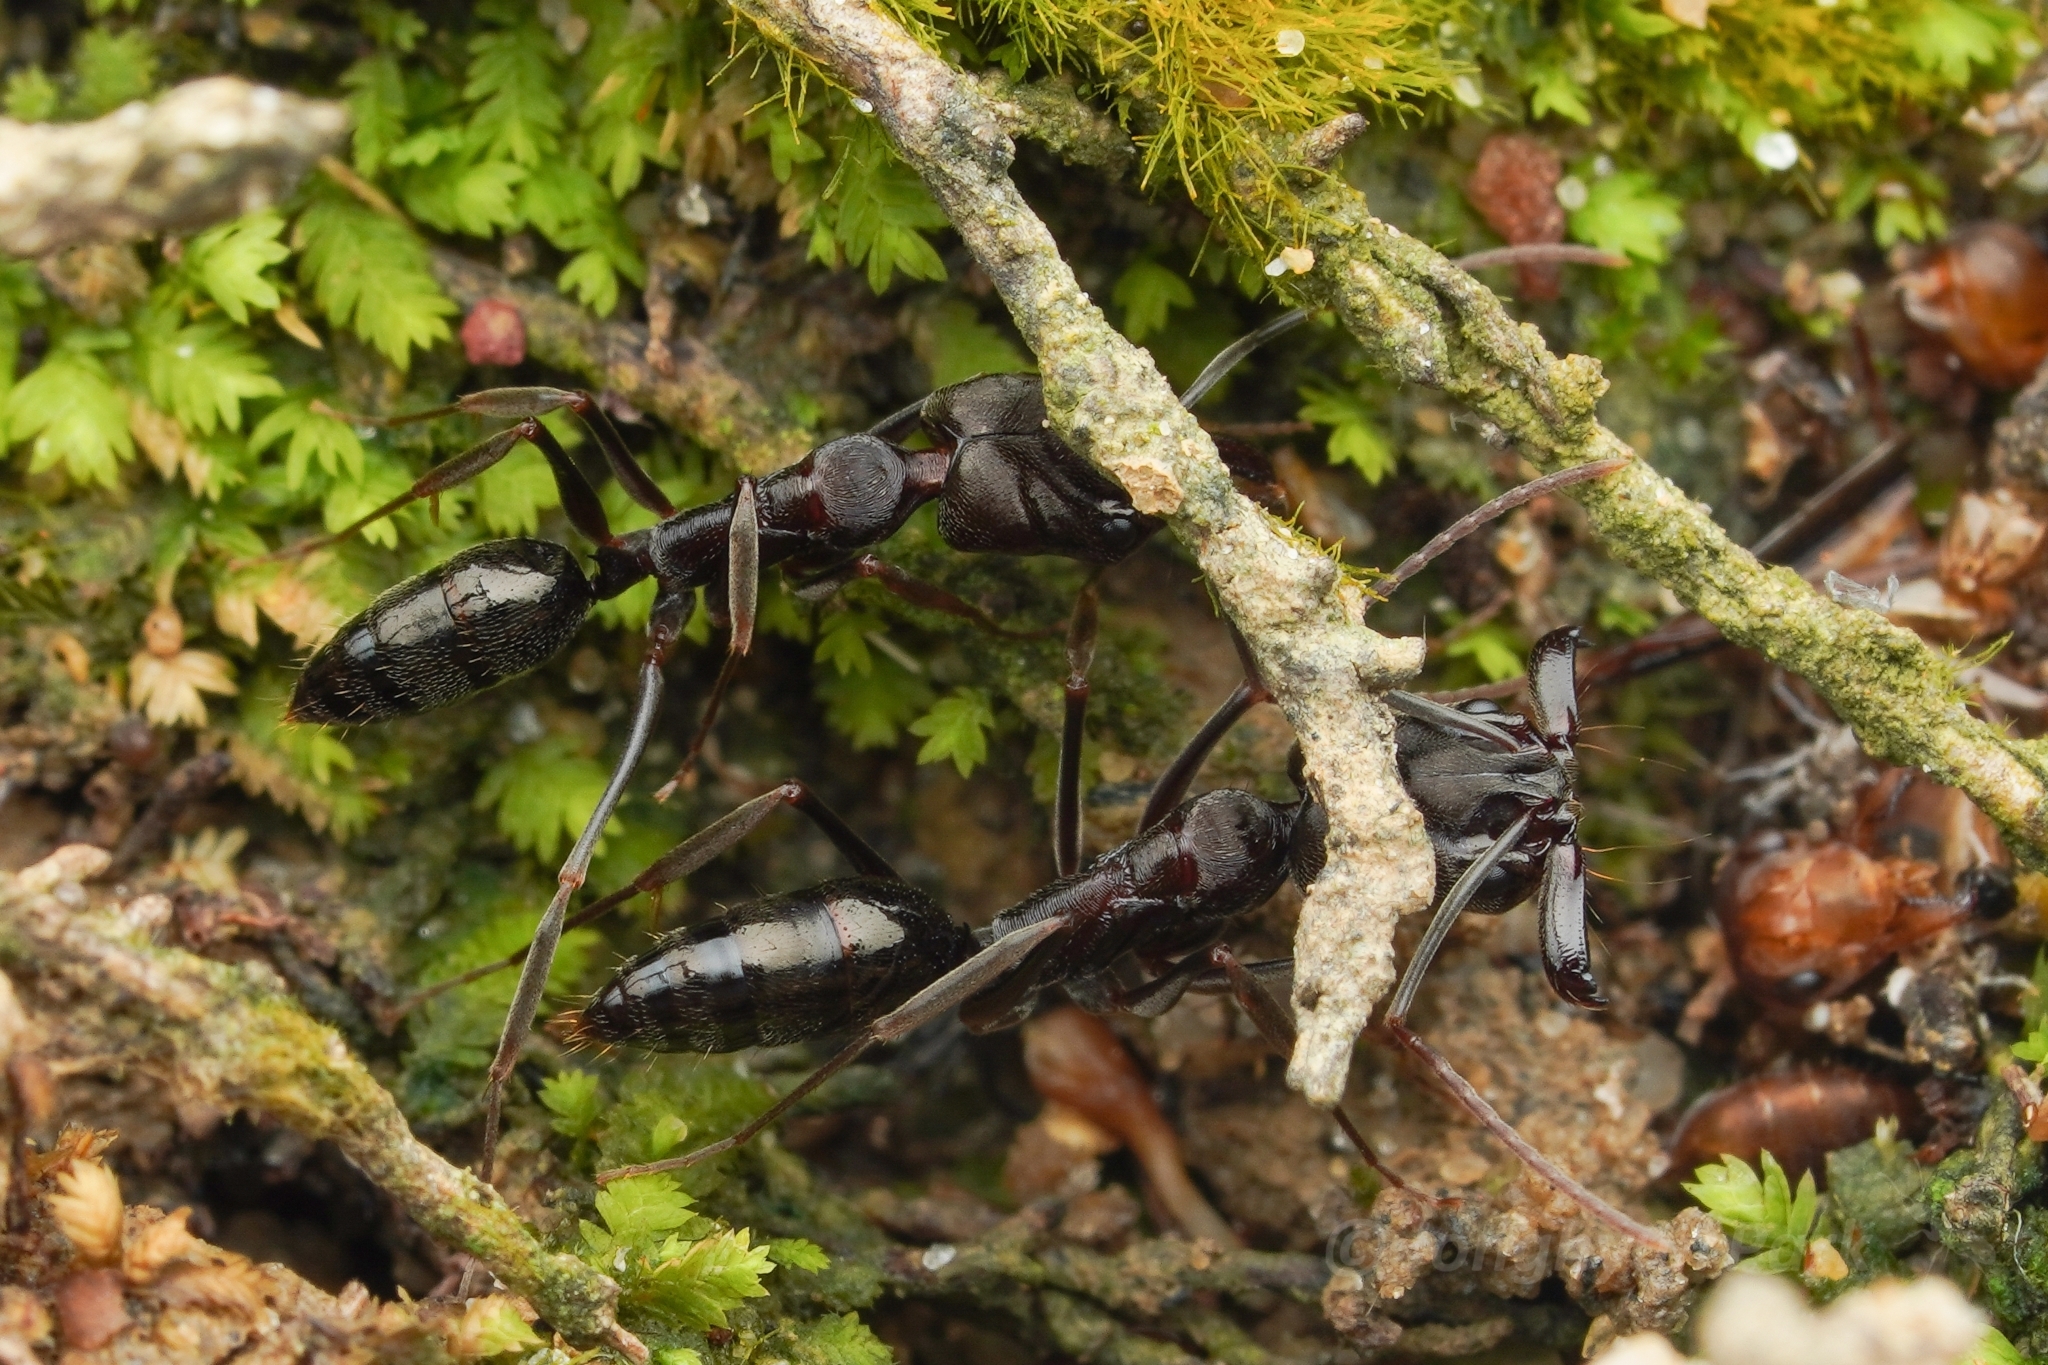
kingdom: Animalia
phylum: Arthropoda
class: Insecta
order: Hymenoptera
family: Formicidae
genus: Odontomachus
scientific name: Odontomachus simillimus
